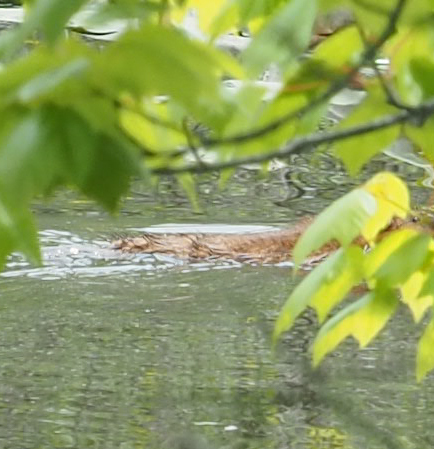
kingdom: Animalia
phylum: Chordata
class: Mammalia
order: Rodentia
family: Cricetidae
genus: Ondatra
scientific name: Ondatra zibethicus
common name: Muskrat
